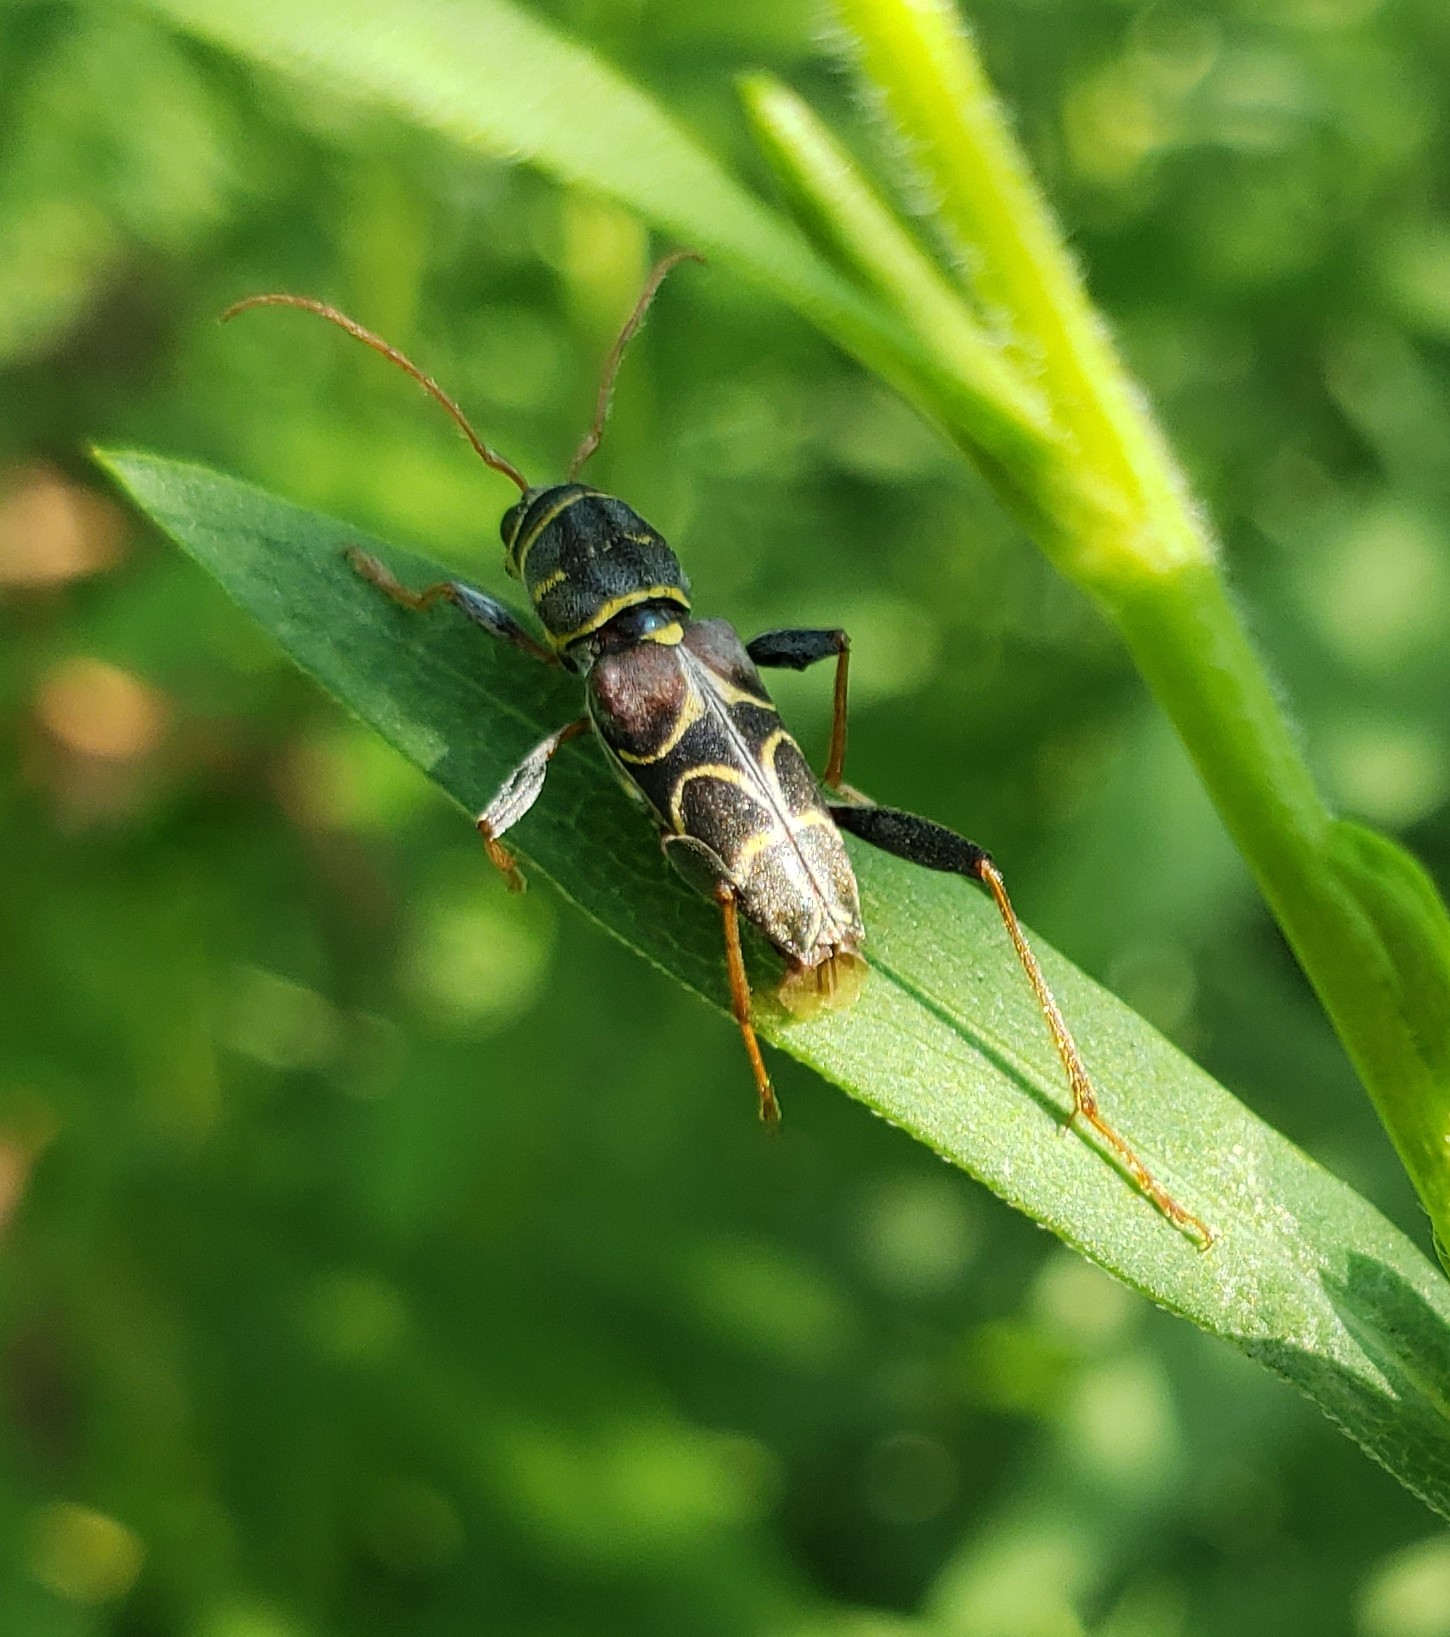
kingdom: Animalia
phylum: Arthropoda
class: Insecta
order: Coleoptera
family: Cerambycidae
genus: Neoclytus
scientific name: Neoclytus scutellaris
